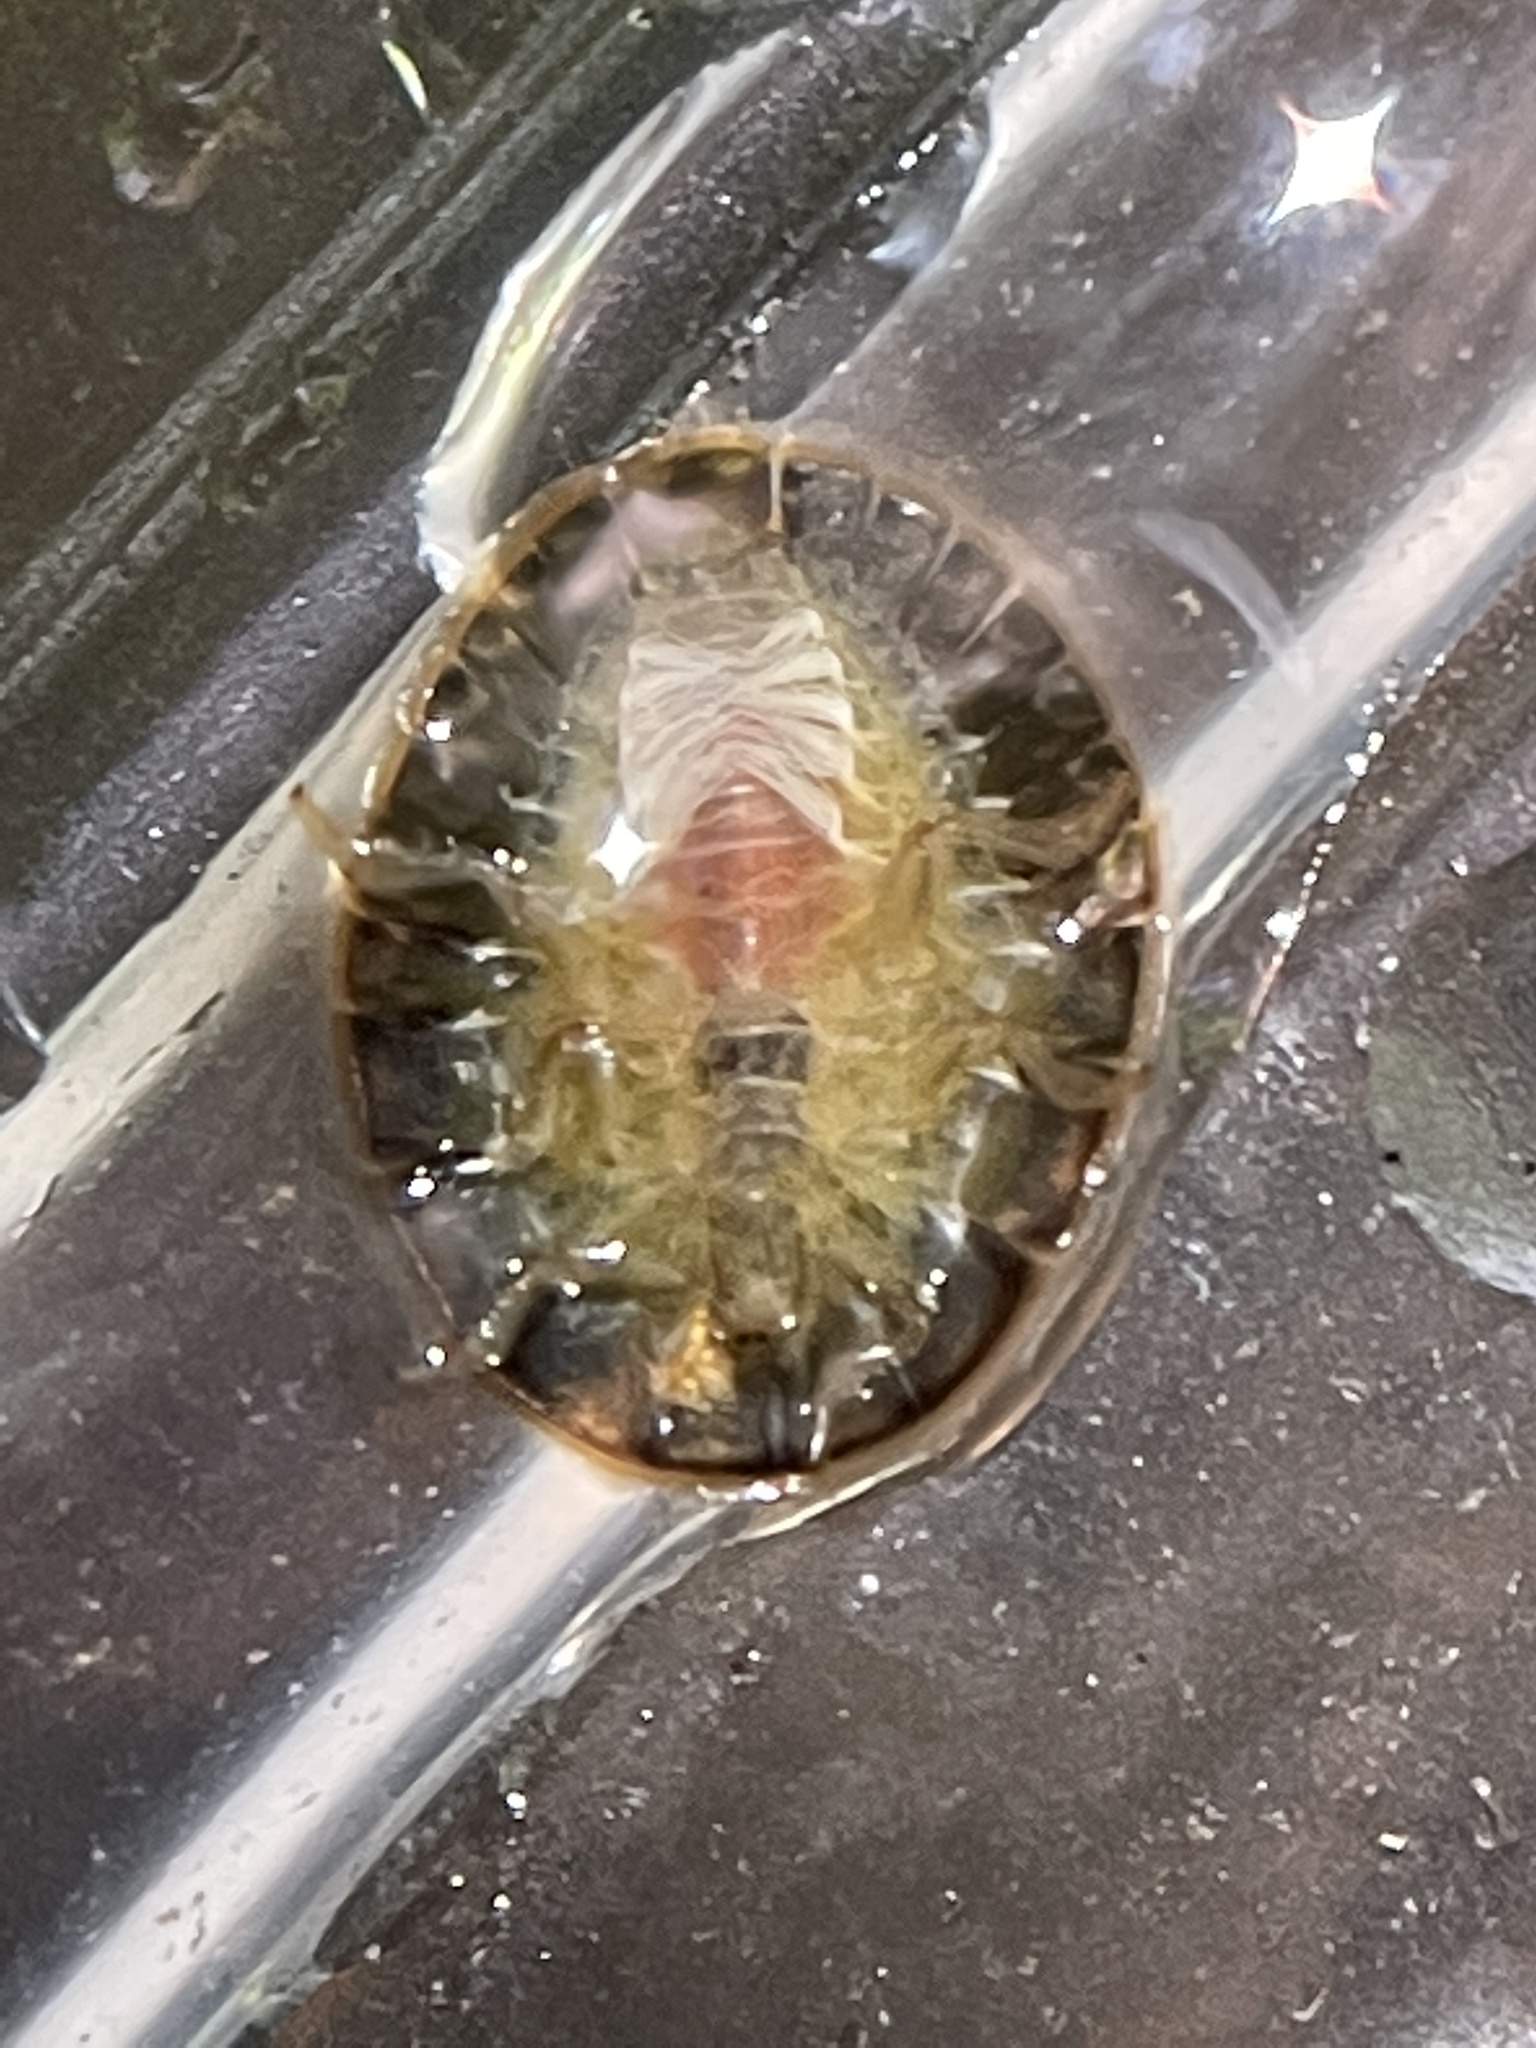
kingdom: Animalia
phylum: Arthropoda
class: Insecta
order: Coleoptera
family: Psephenidae
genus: Psephenus
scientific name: Psephenus herricki
